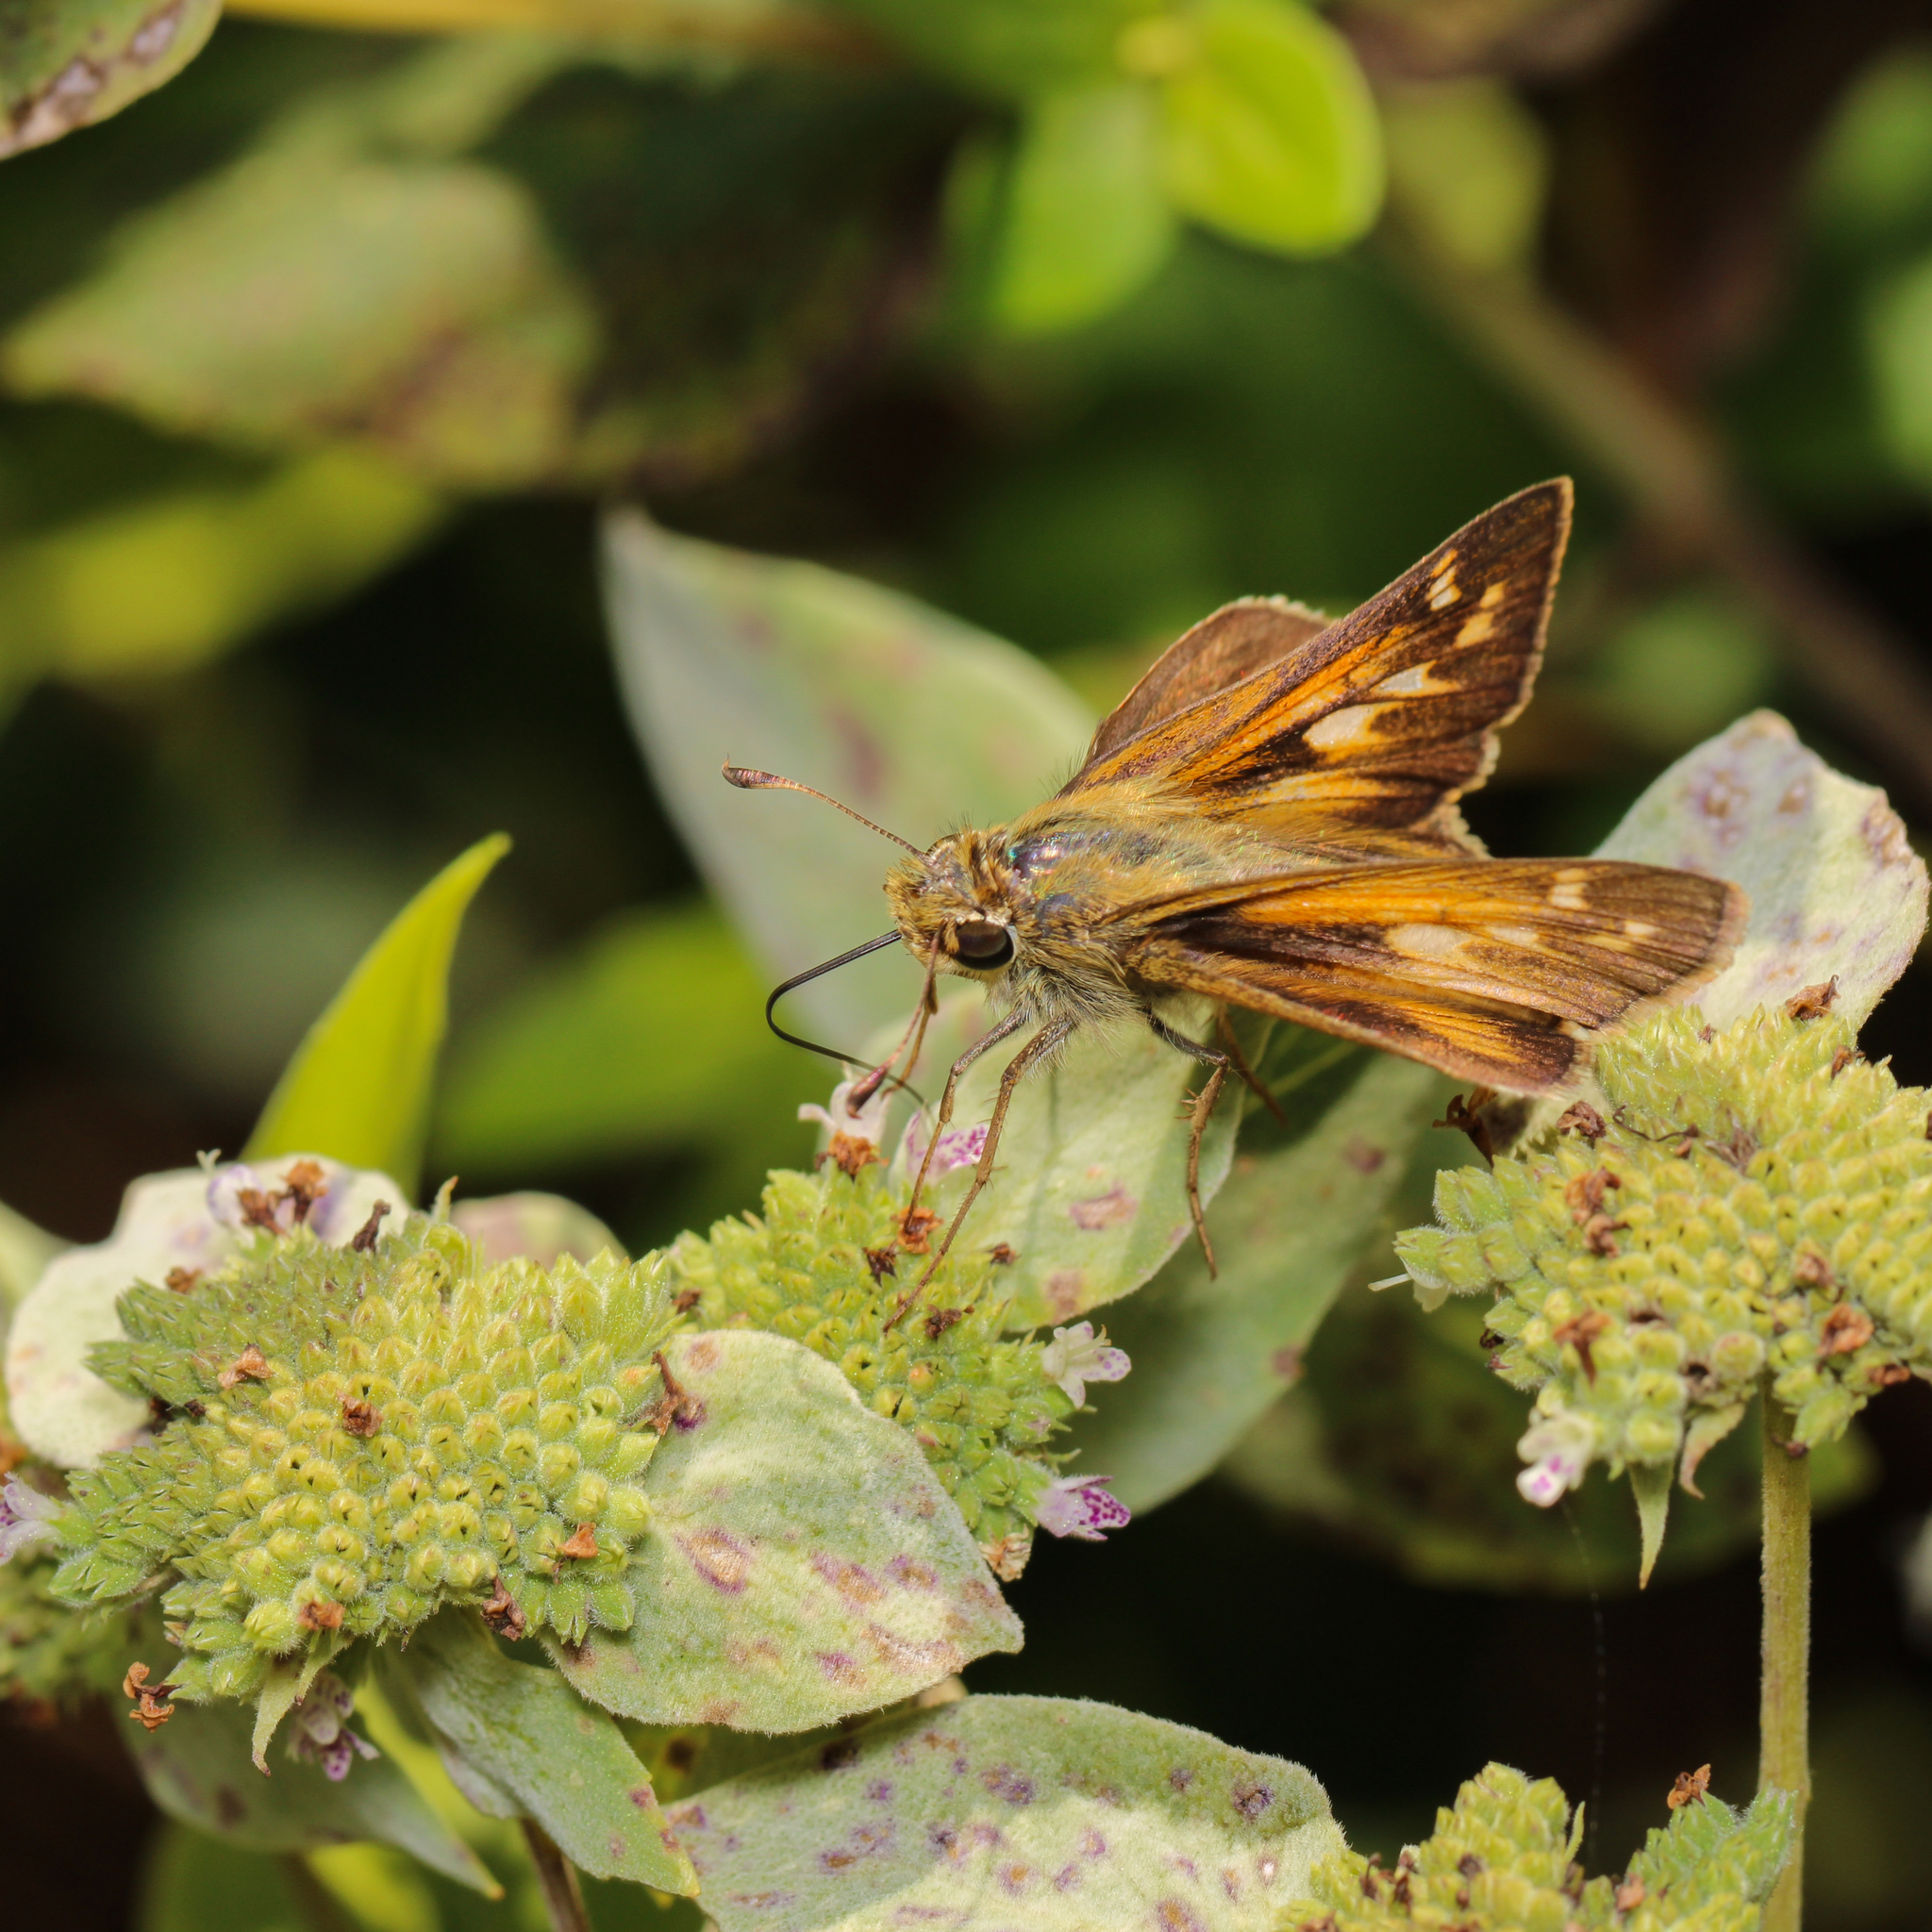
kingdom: Animalia
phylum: Arthropoda
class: Insecta
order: Lepidoptera
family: Hesperiidae
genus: Atalopedes
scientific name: Atalopedes
